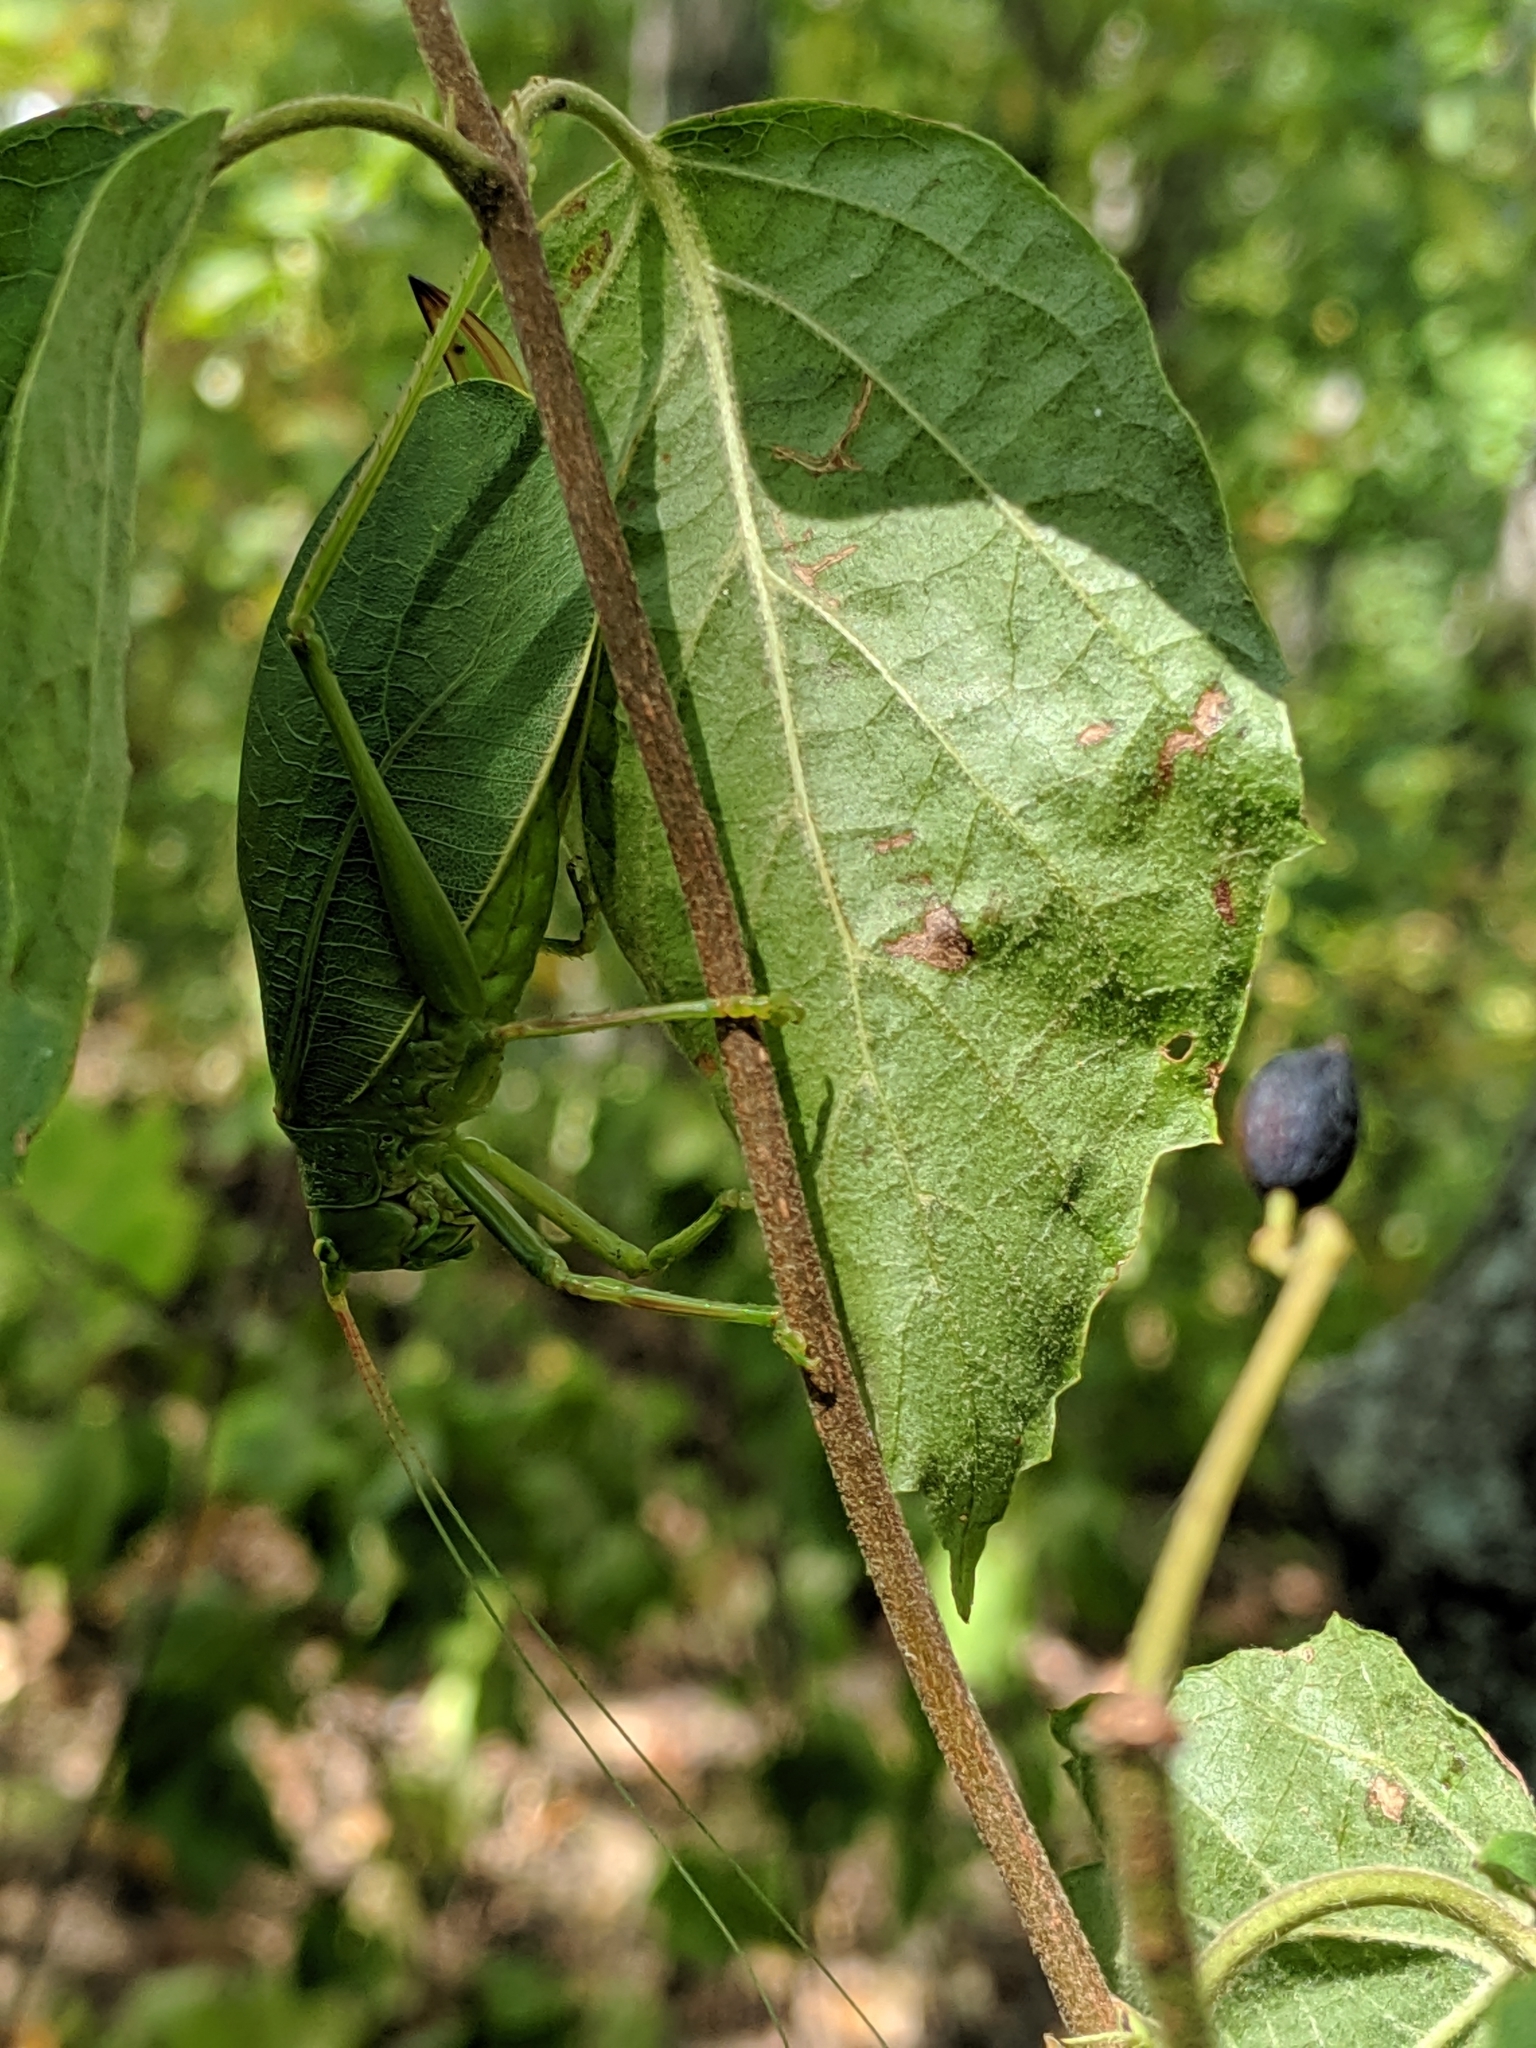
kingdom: Animalia
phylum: Arthropoda
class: Insecta
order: Orthoptera
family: Tettigoniidae
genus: Pterophylla
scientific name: Pterophylla camellifolia
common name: Common true katydid
